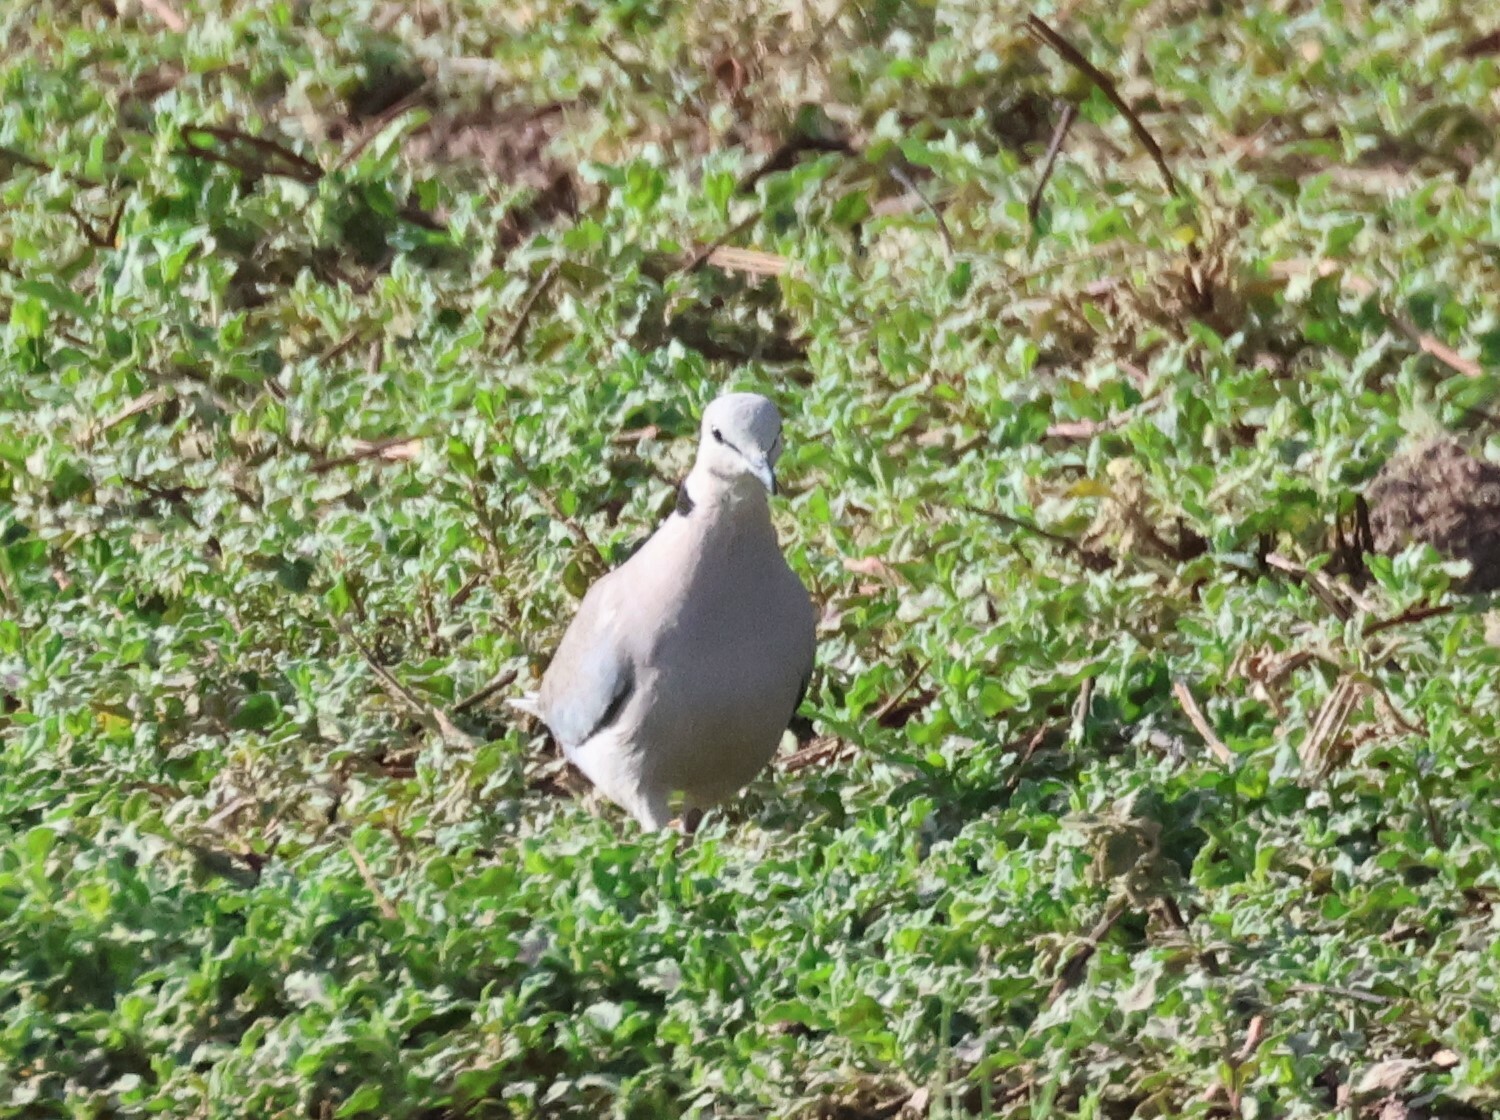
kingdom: Animalia
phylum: Chordata
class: Aves
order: Columbiformes
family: Columbidae
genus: Streptopelia
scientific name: Streptopelia capicola
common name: Ring-necked dove
